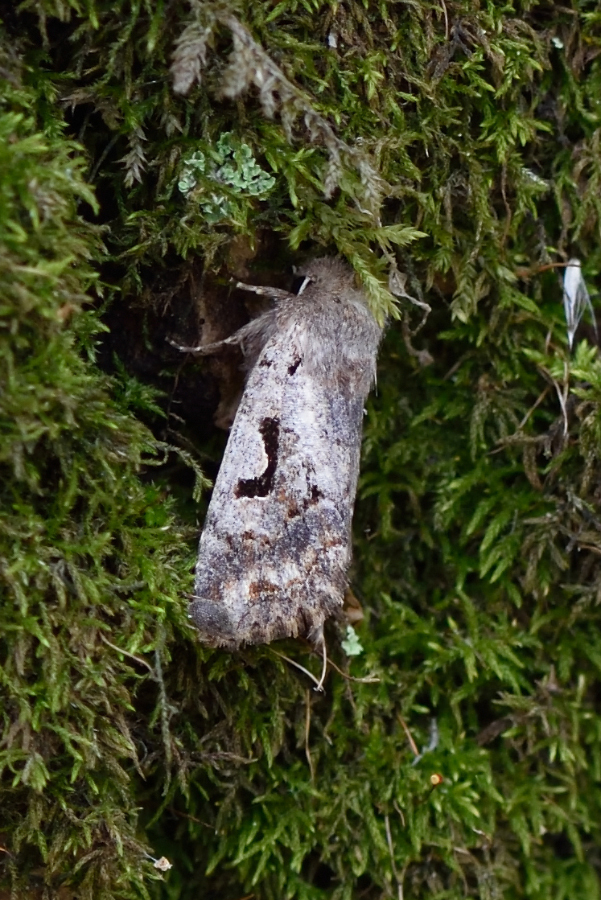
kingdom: Animalia
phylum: Arthropoda
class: Insecta
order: Lepidoptera
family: Noctuidae
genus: Orthosia
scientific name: Orthosia gothica
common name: Hebrew character
